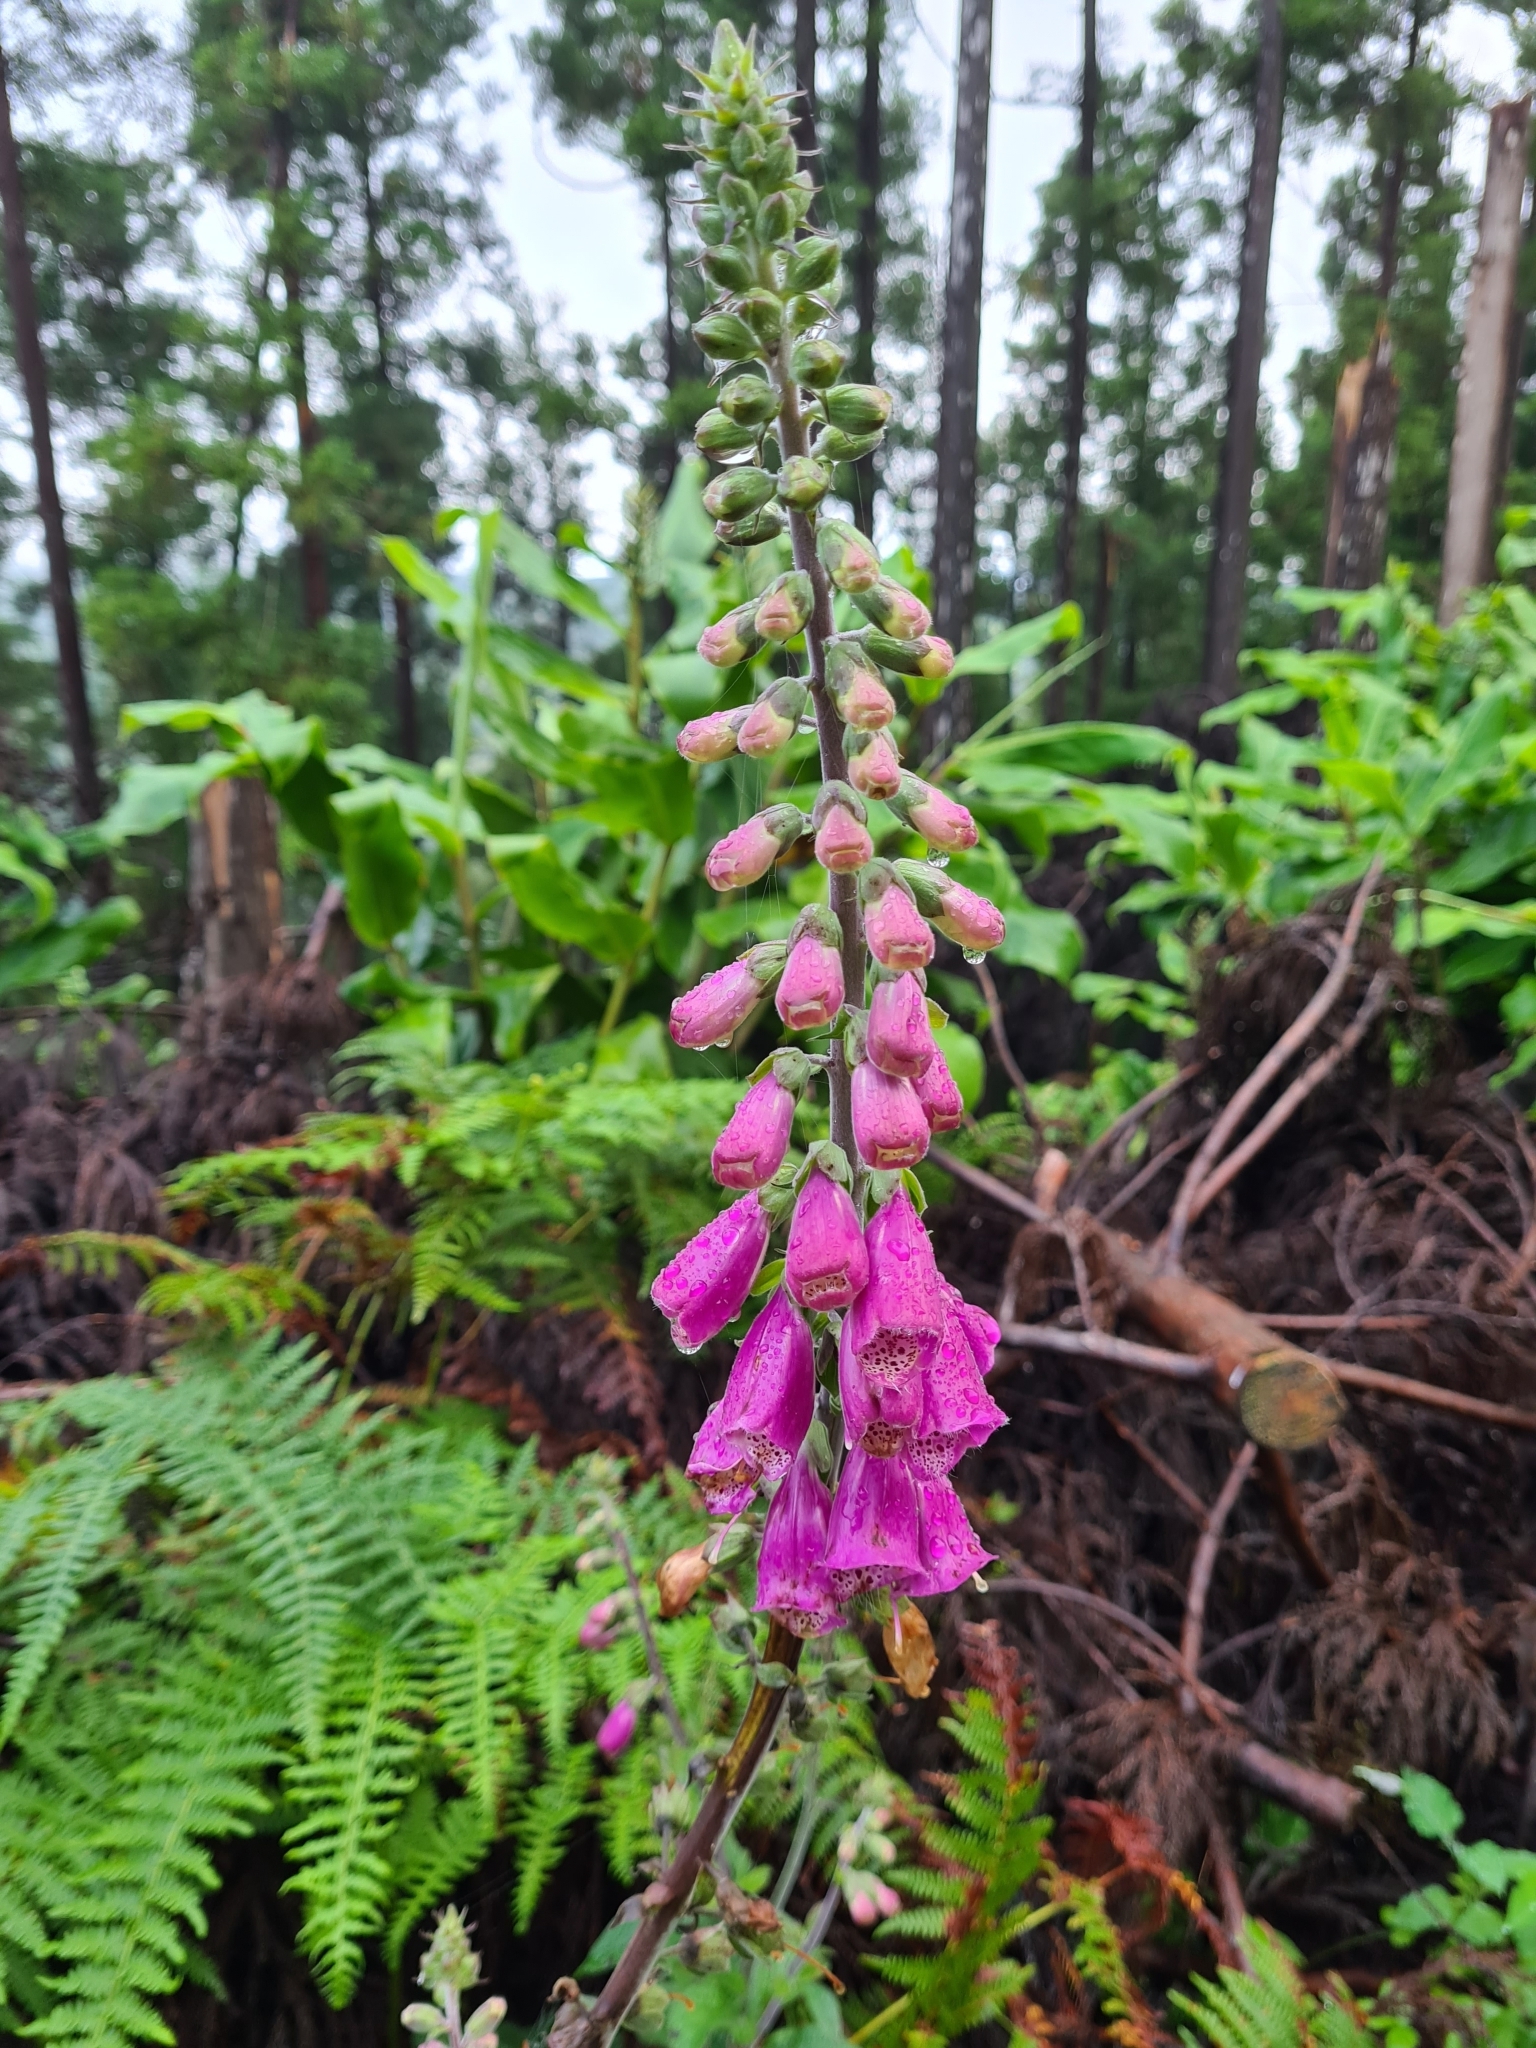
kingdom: Plantae
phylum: Tracheophyta
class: Magnoliopsida
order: Lamiales
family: Plantaginaceae
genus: Digitalis
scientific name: Digitalis purpurea
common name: Foxglove
